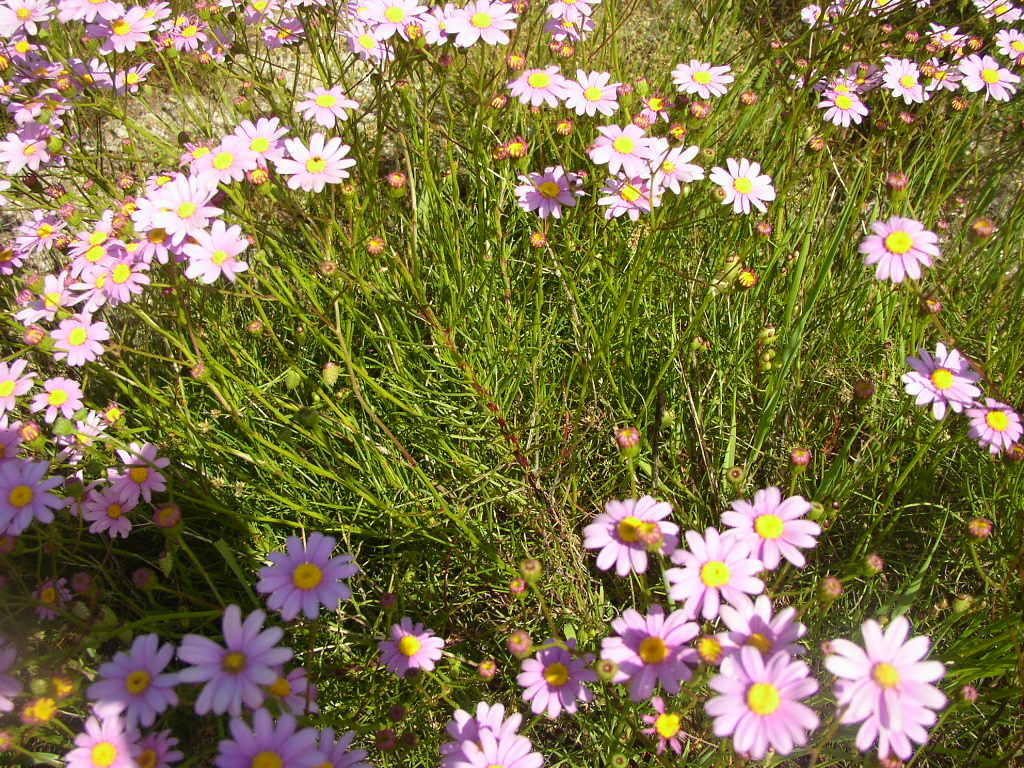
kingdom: Plantae
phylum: Tracheophyta
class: Magnoliopsida
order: Asterales
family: Asteraceae
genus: Senecio
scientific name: Senecio umbellatus
